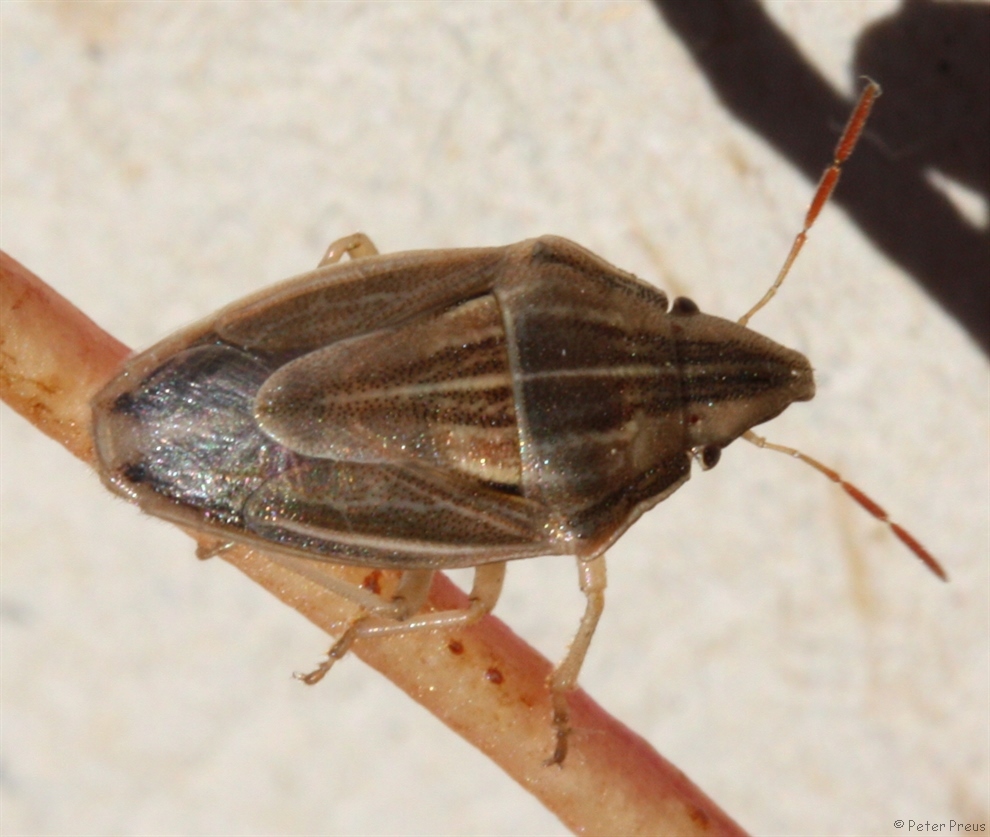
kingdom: Animalia
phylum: Arthropoda
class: Insecta
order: Hemiptera
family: Pentatomidae
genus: Aelia
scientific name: Aelia acuminata
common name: Bishop's mitre
